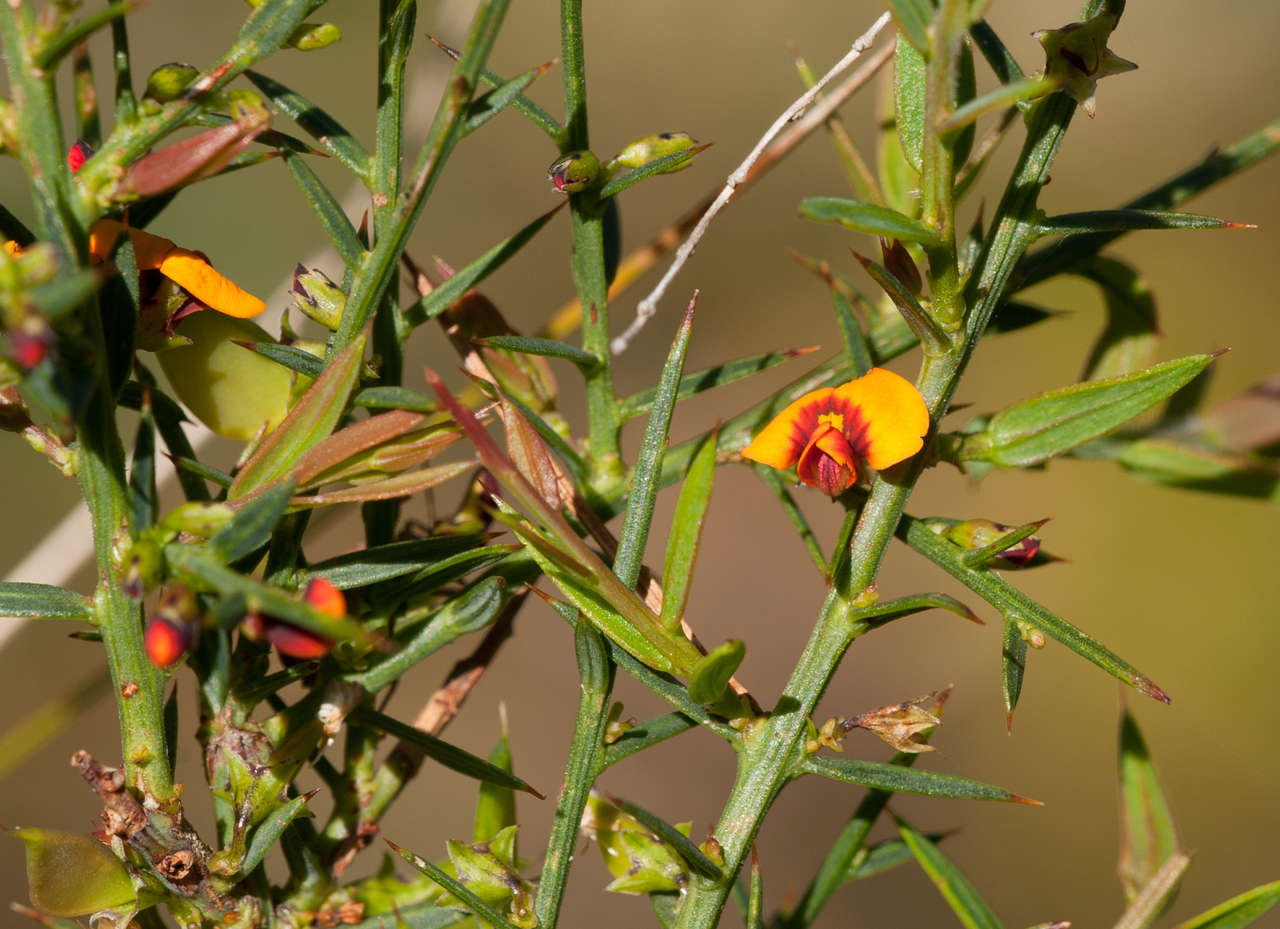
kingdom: Plantae
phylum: Tracheophyta
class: Magnoliopsida
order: Fabales
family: Fabaceae
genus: Daviesia
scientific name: Daviesia ulicifolia
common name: Gorse bitter-pea
